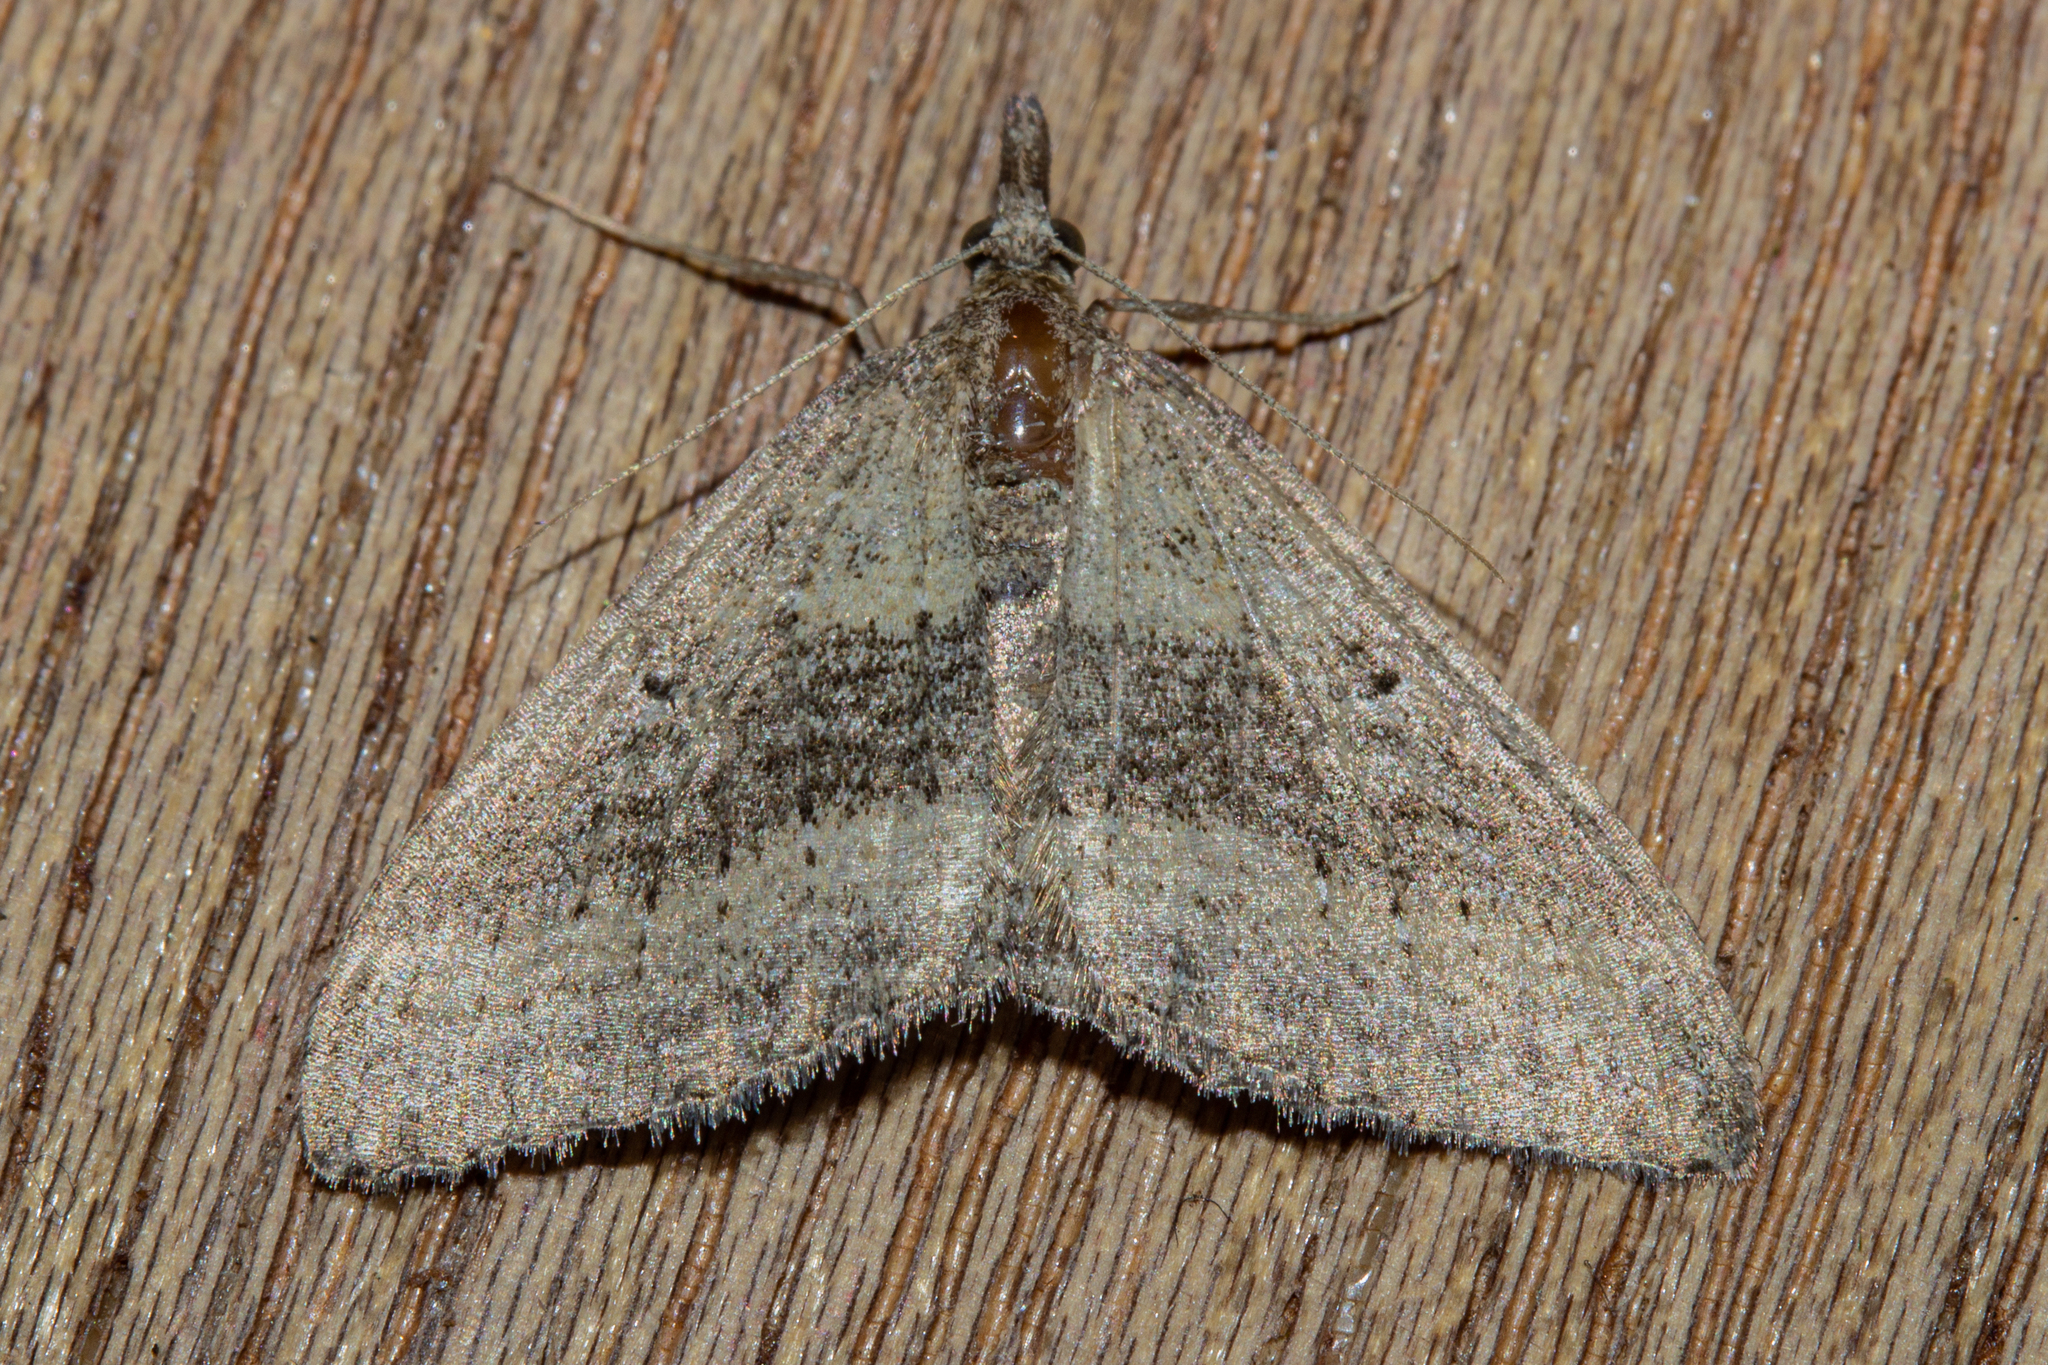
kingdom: Animalia
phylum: Arthropoda
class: Insecta
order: Lepidoptera
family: Geometridae
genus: Epyaxa
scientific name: Epyaxa venipunctata
